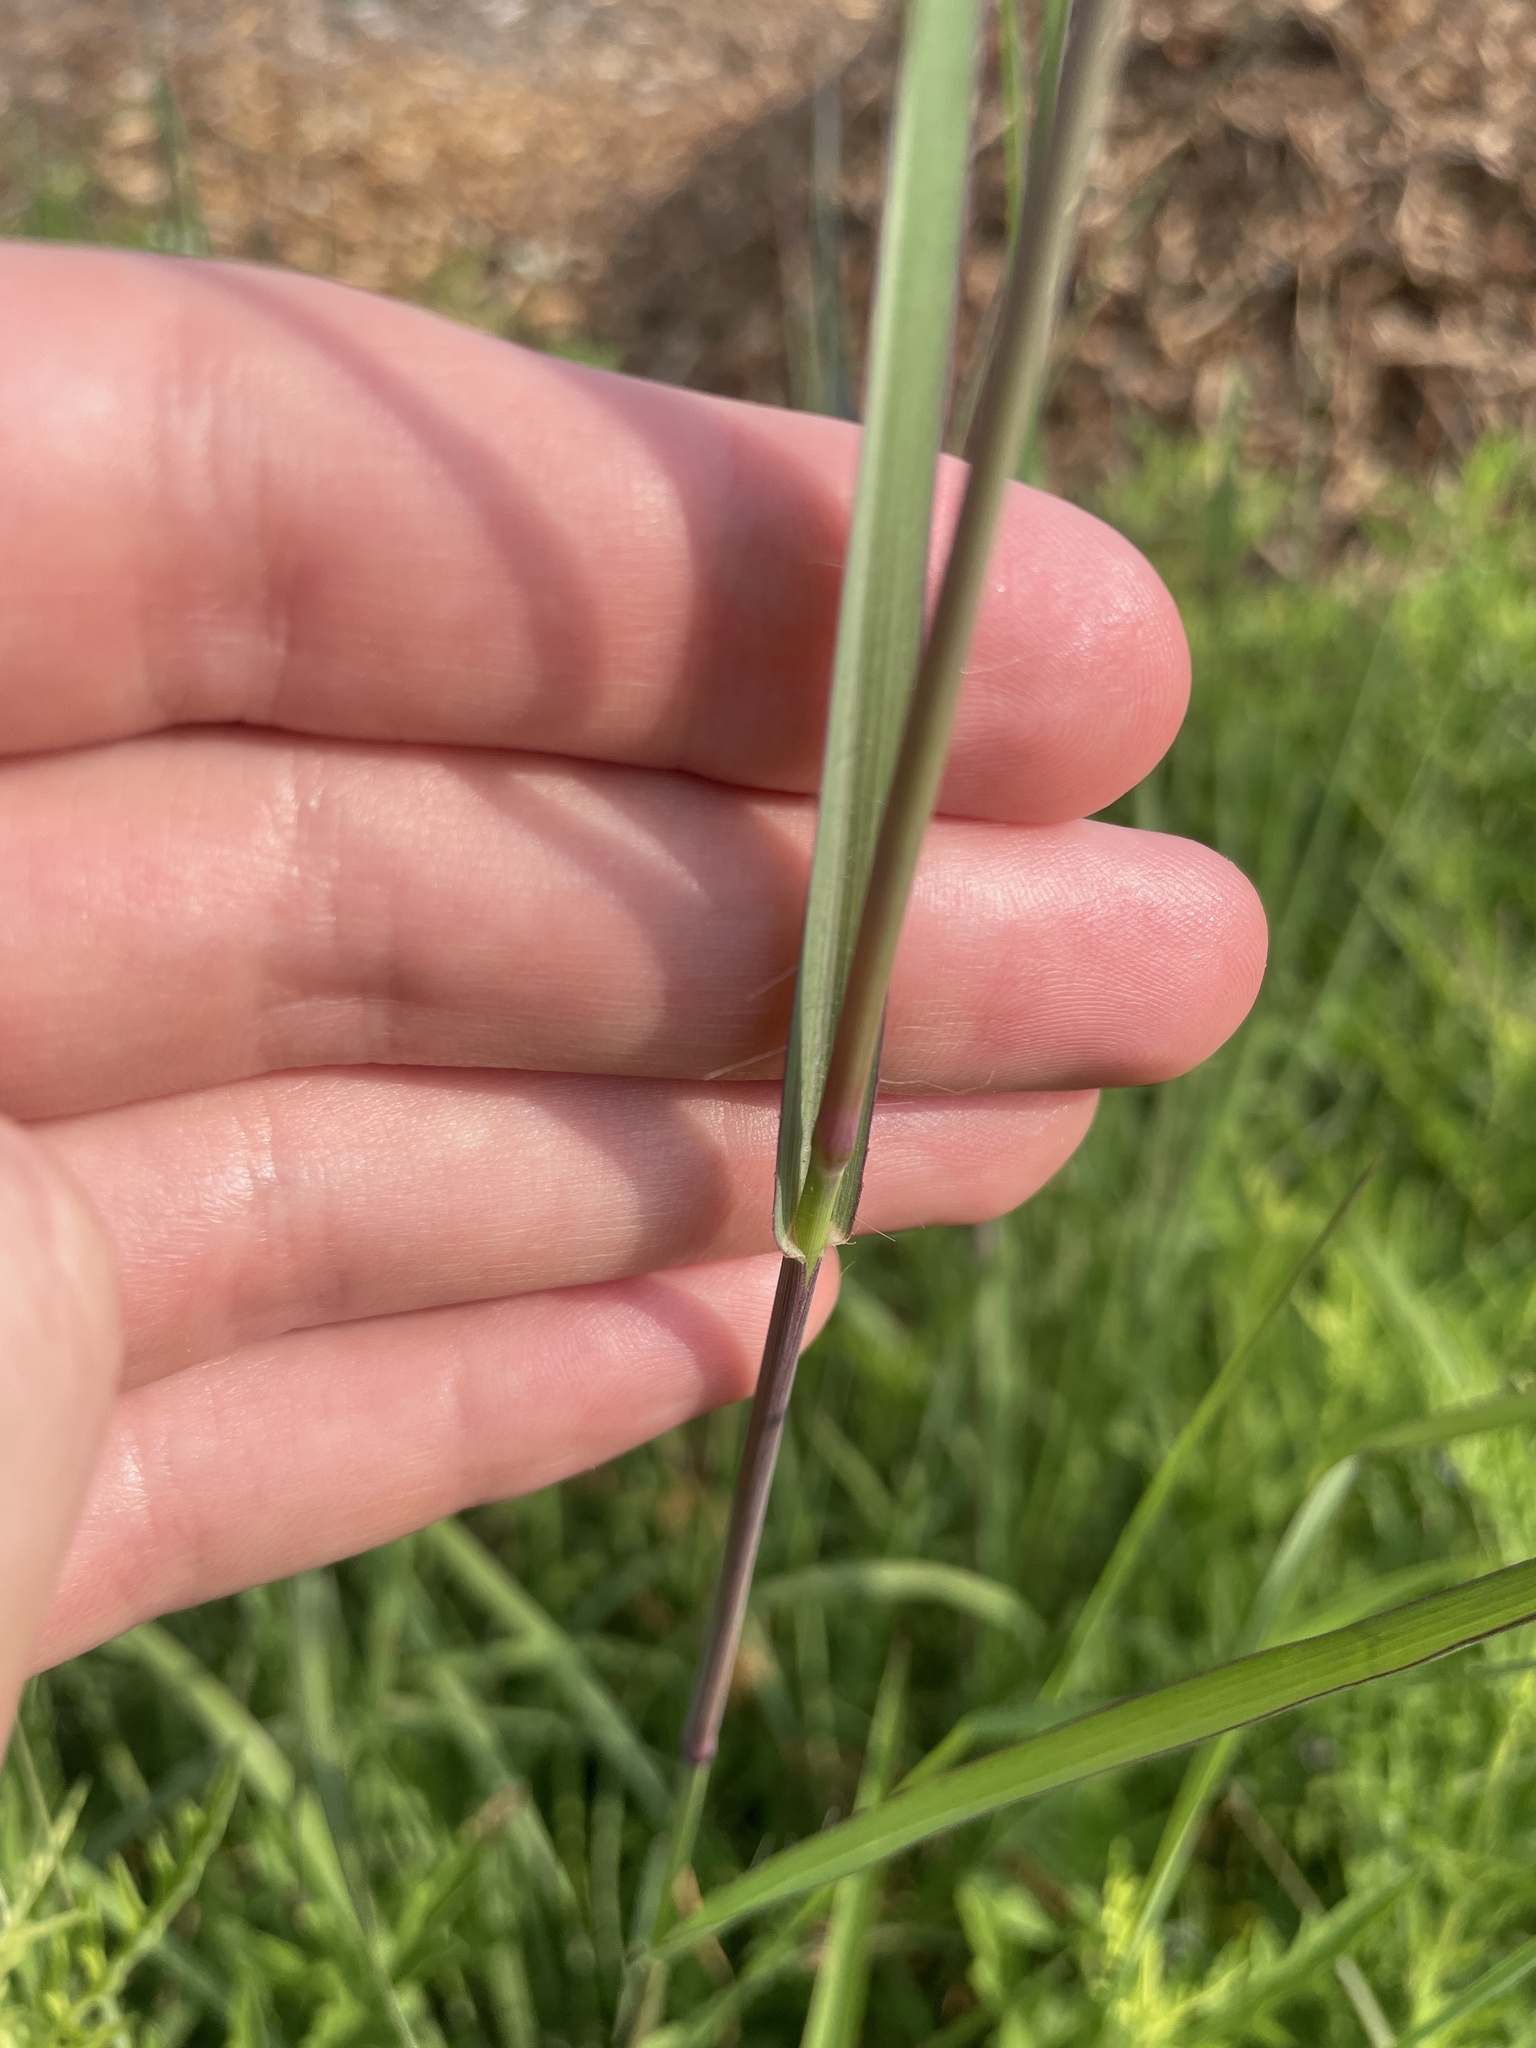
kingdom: Plantae
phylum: Tracheophyta
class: Liliopsida
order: Poales
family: Poaceae
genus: Panicum
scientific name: Panicum coloratum
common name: Kleingrass
